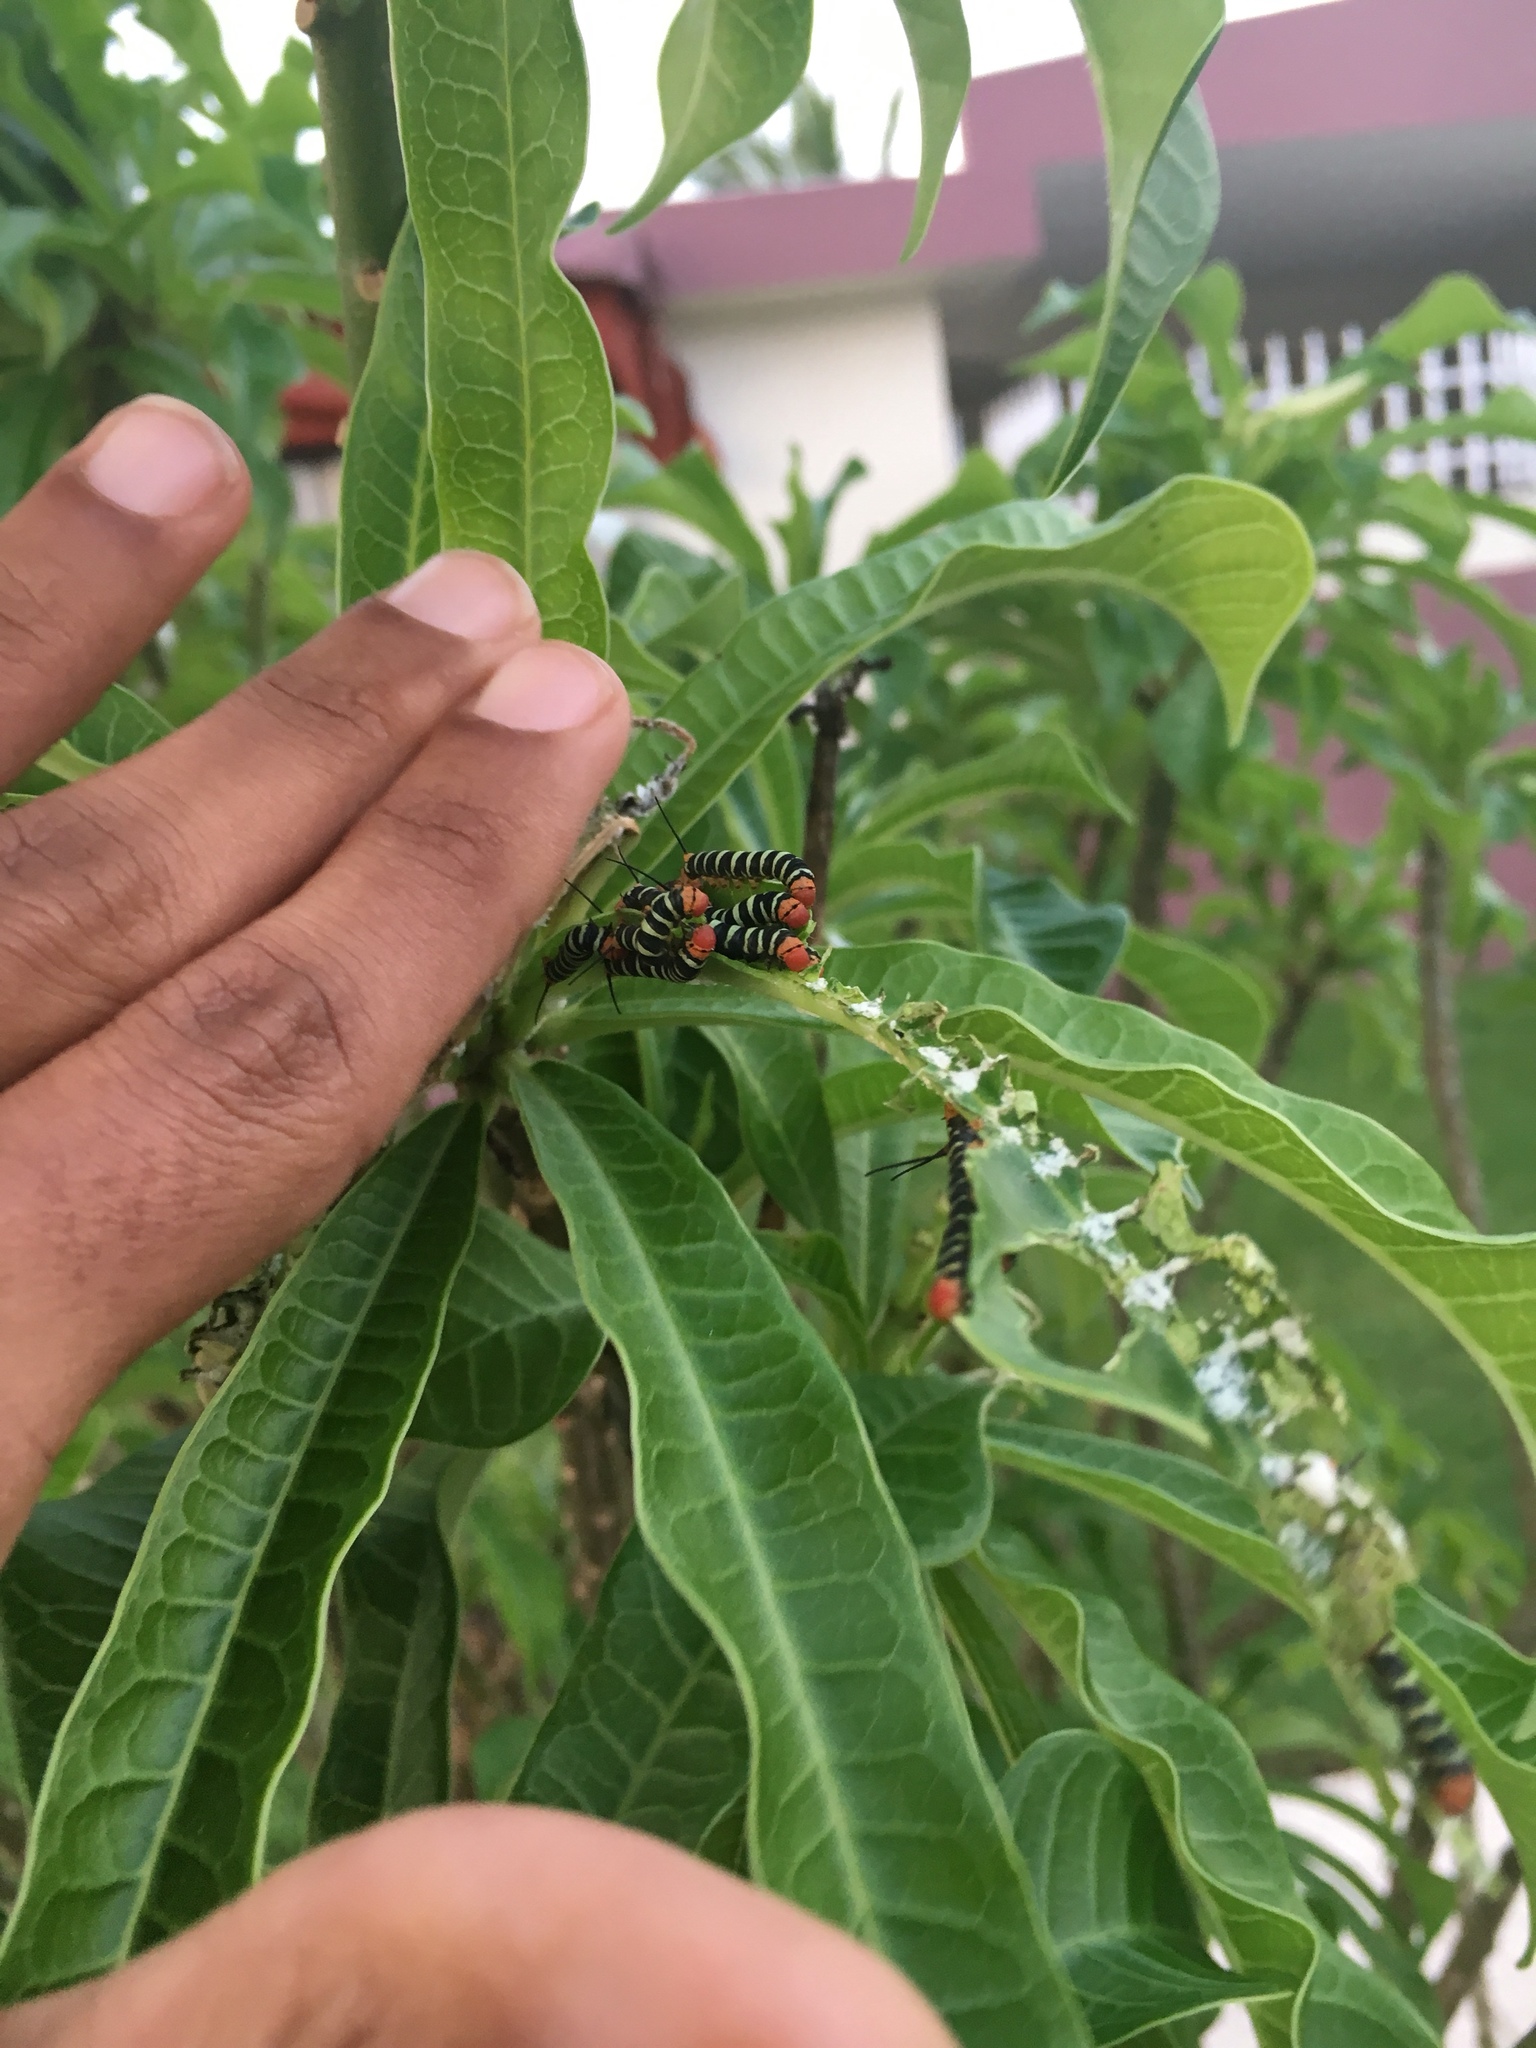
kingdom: Animalia
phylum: Arthropoda
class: Insecta
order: Lepidoptera
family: Sphingidae
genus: Pseudosphinx
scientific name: Pseudosphinx tetrio
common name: Tetrio sphinx
